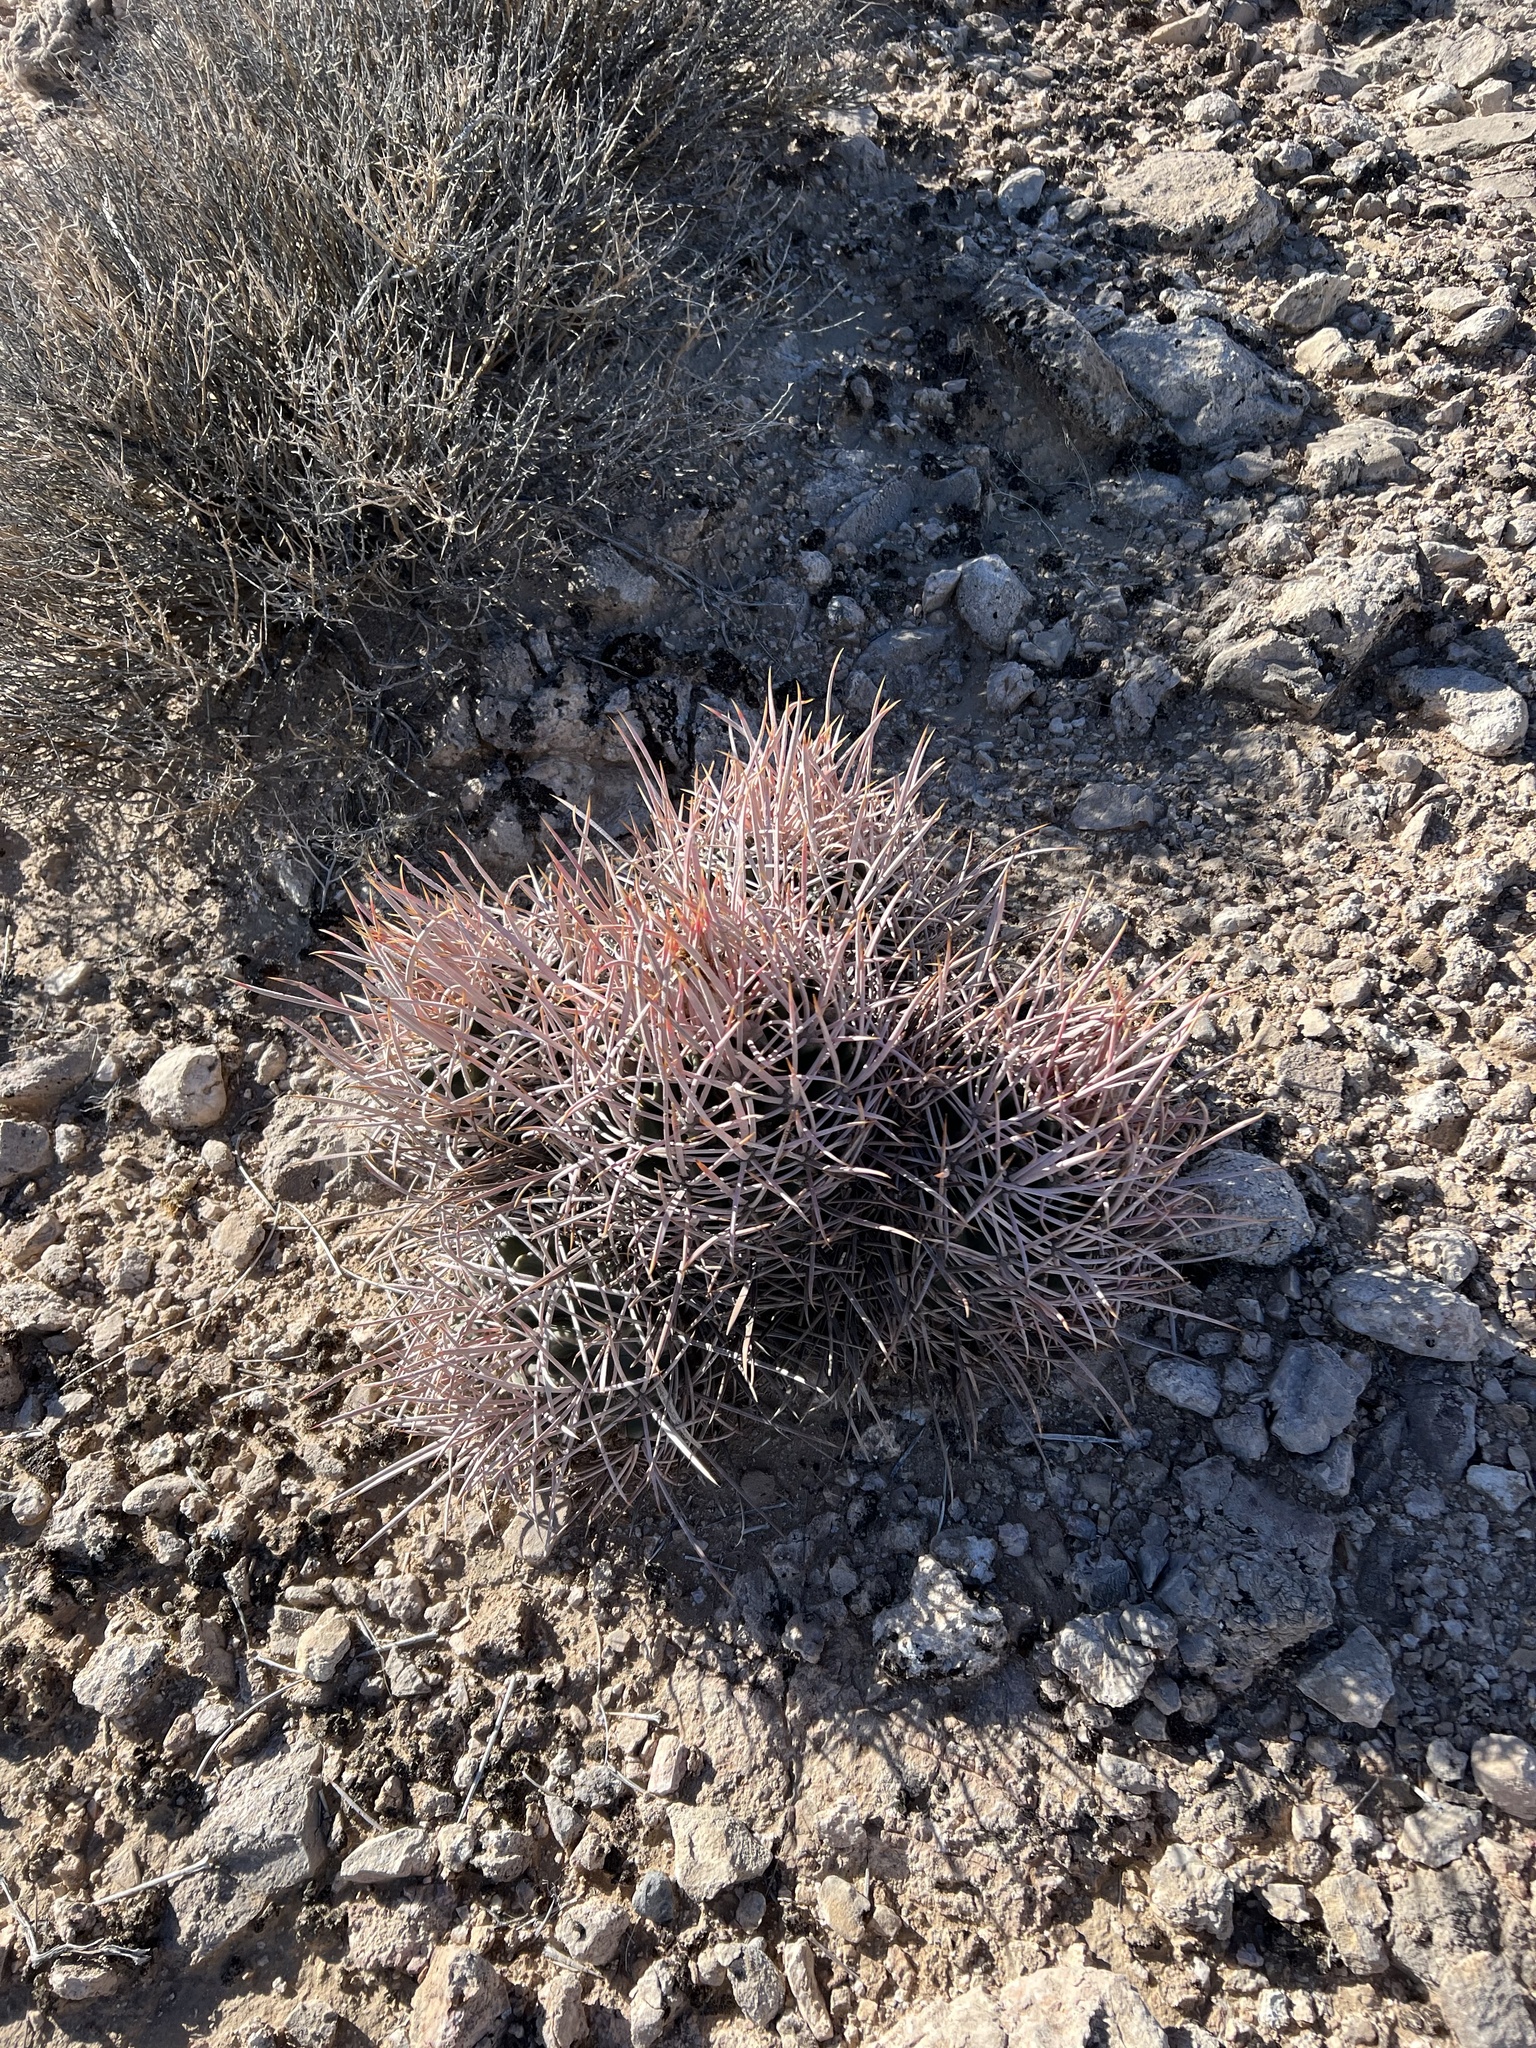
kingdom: Plantae
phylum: Tracheophyta
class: Magnoliopsida
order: Caryophyllales
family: Cactaceae
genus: Echinocactus
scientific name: Echinocactus polycephalus
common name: Cottontop cactus
